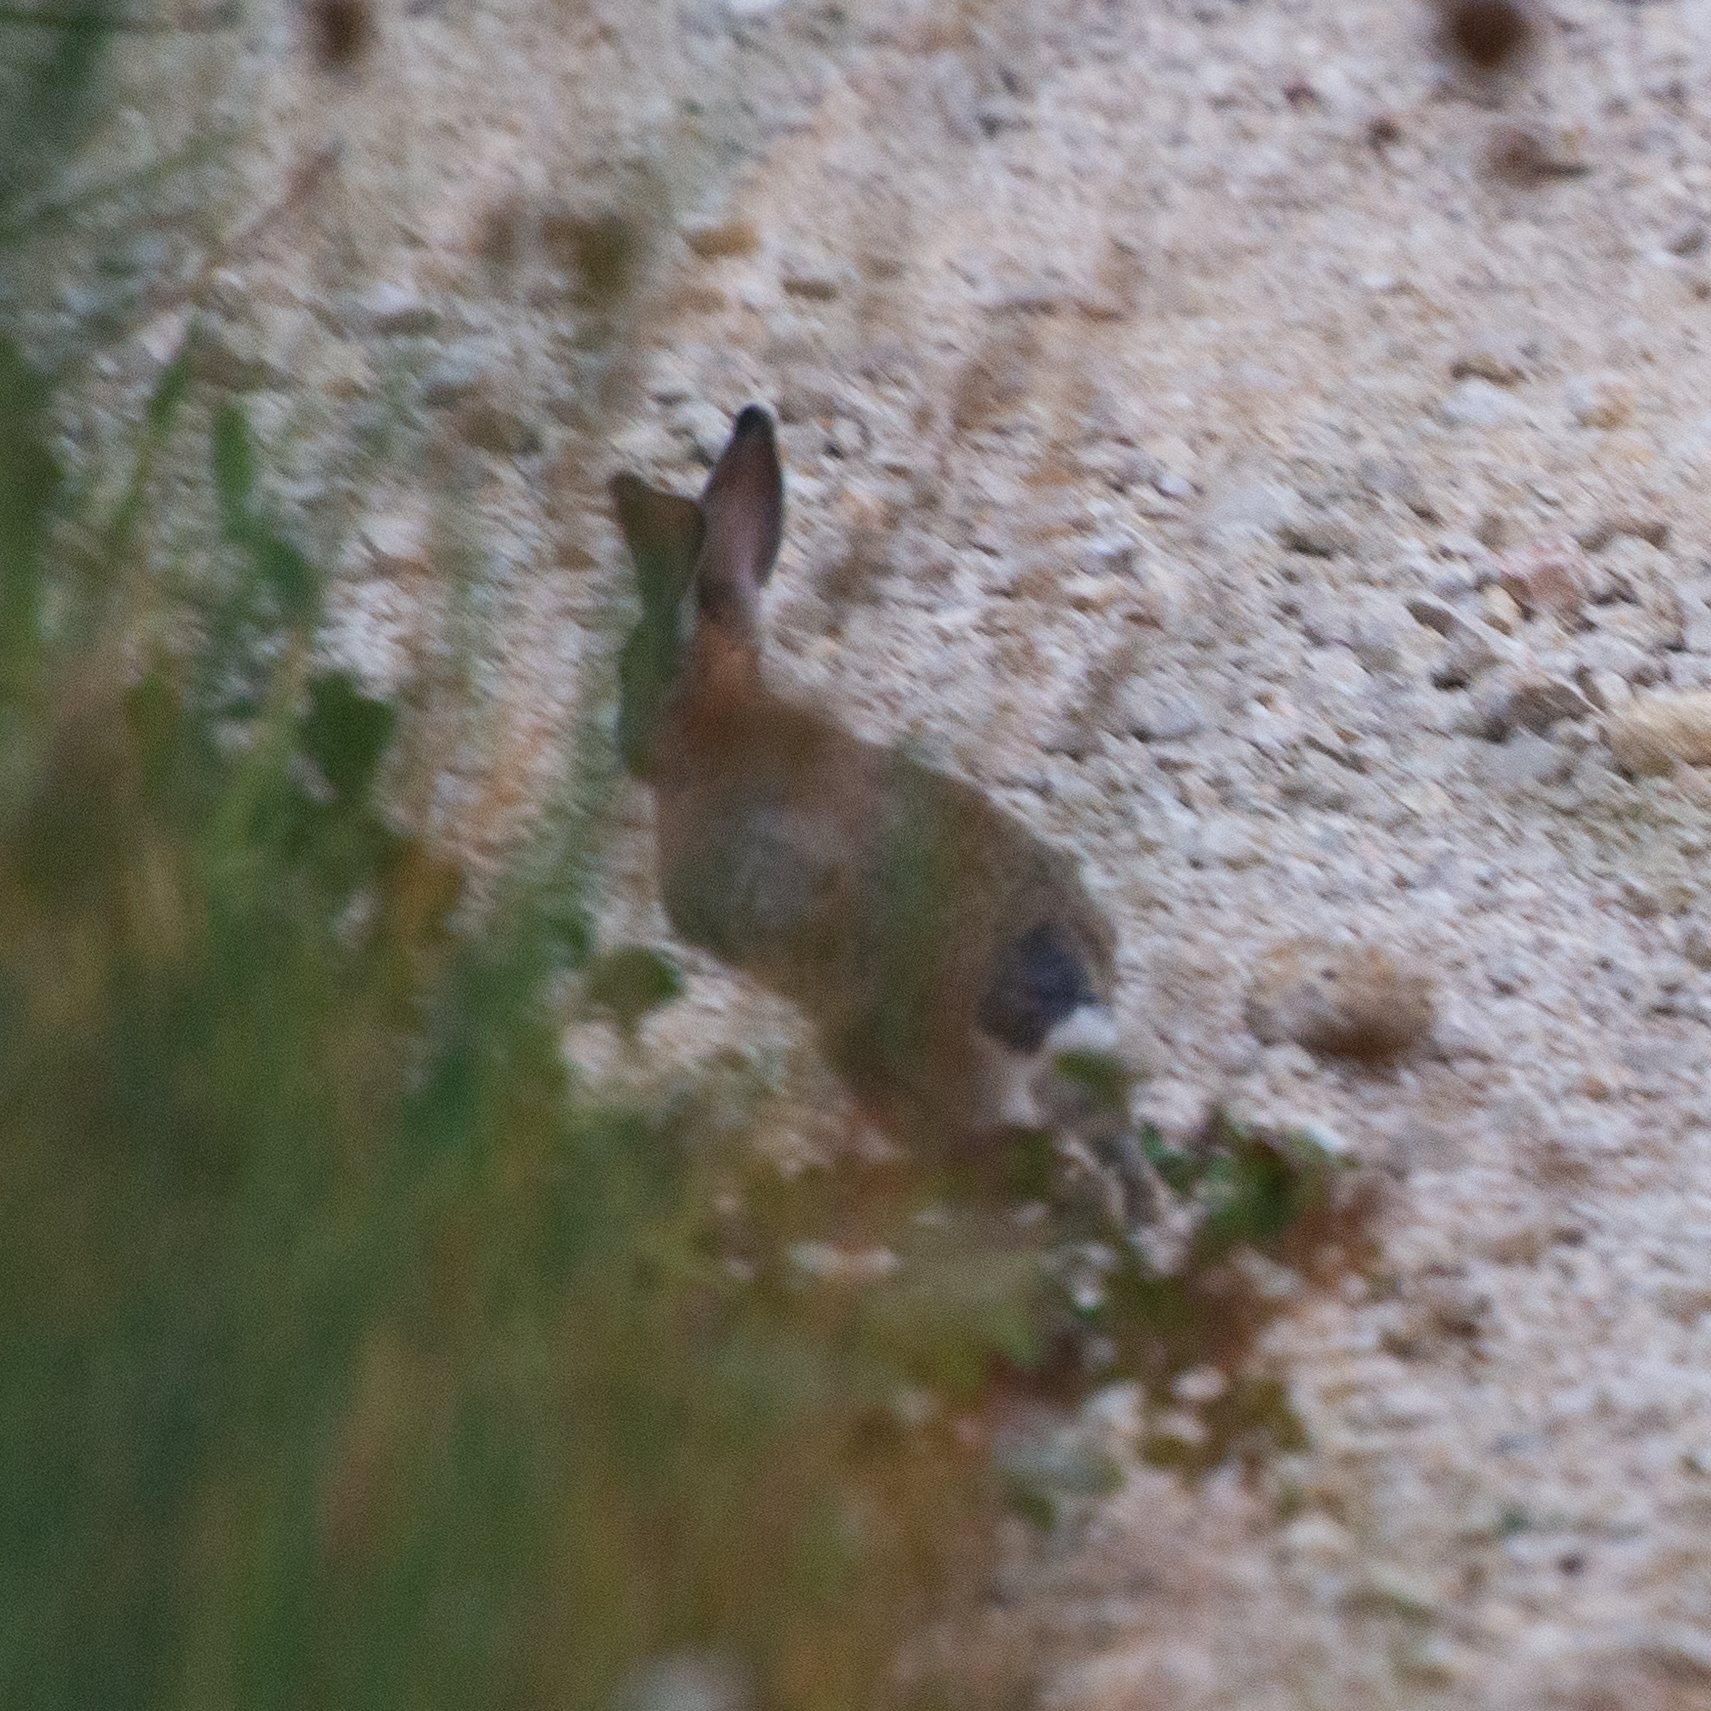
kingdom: Animalia
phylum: Chordata
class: Mammalia
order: Lagomorpha
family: Leporidae
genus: Oryctolagus
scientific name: Oryctolagus cuniculus
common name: European rabbit
